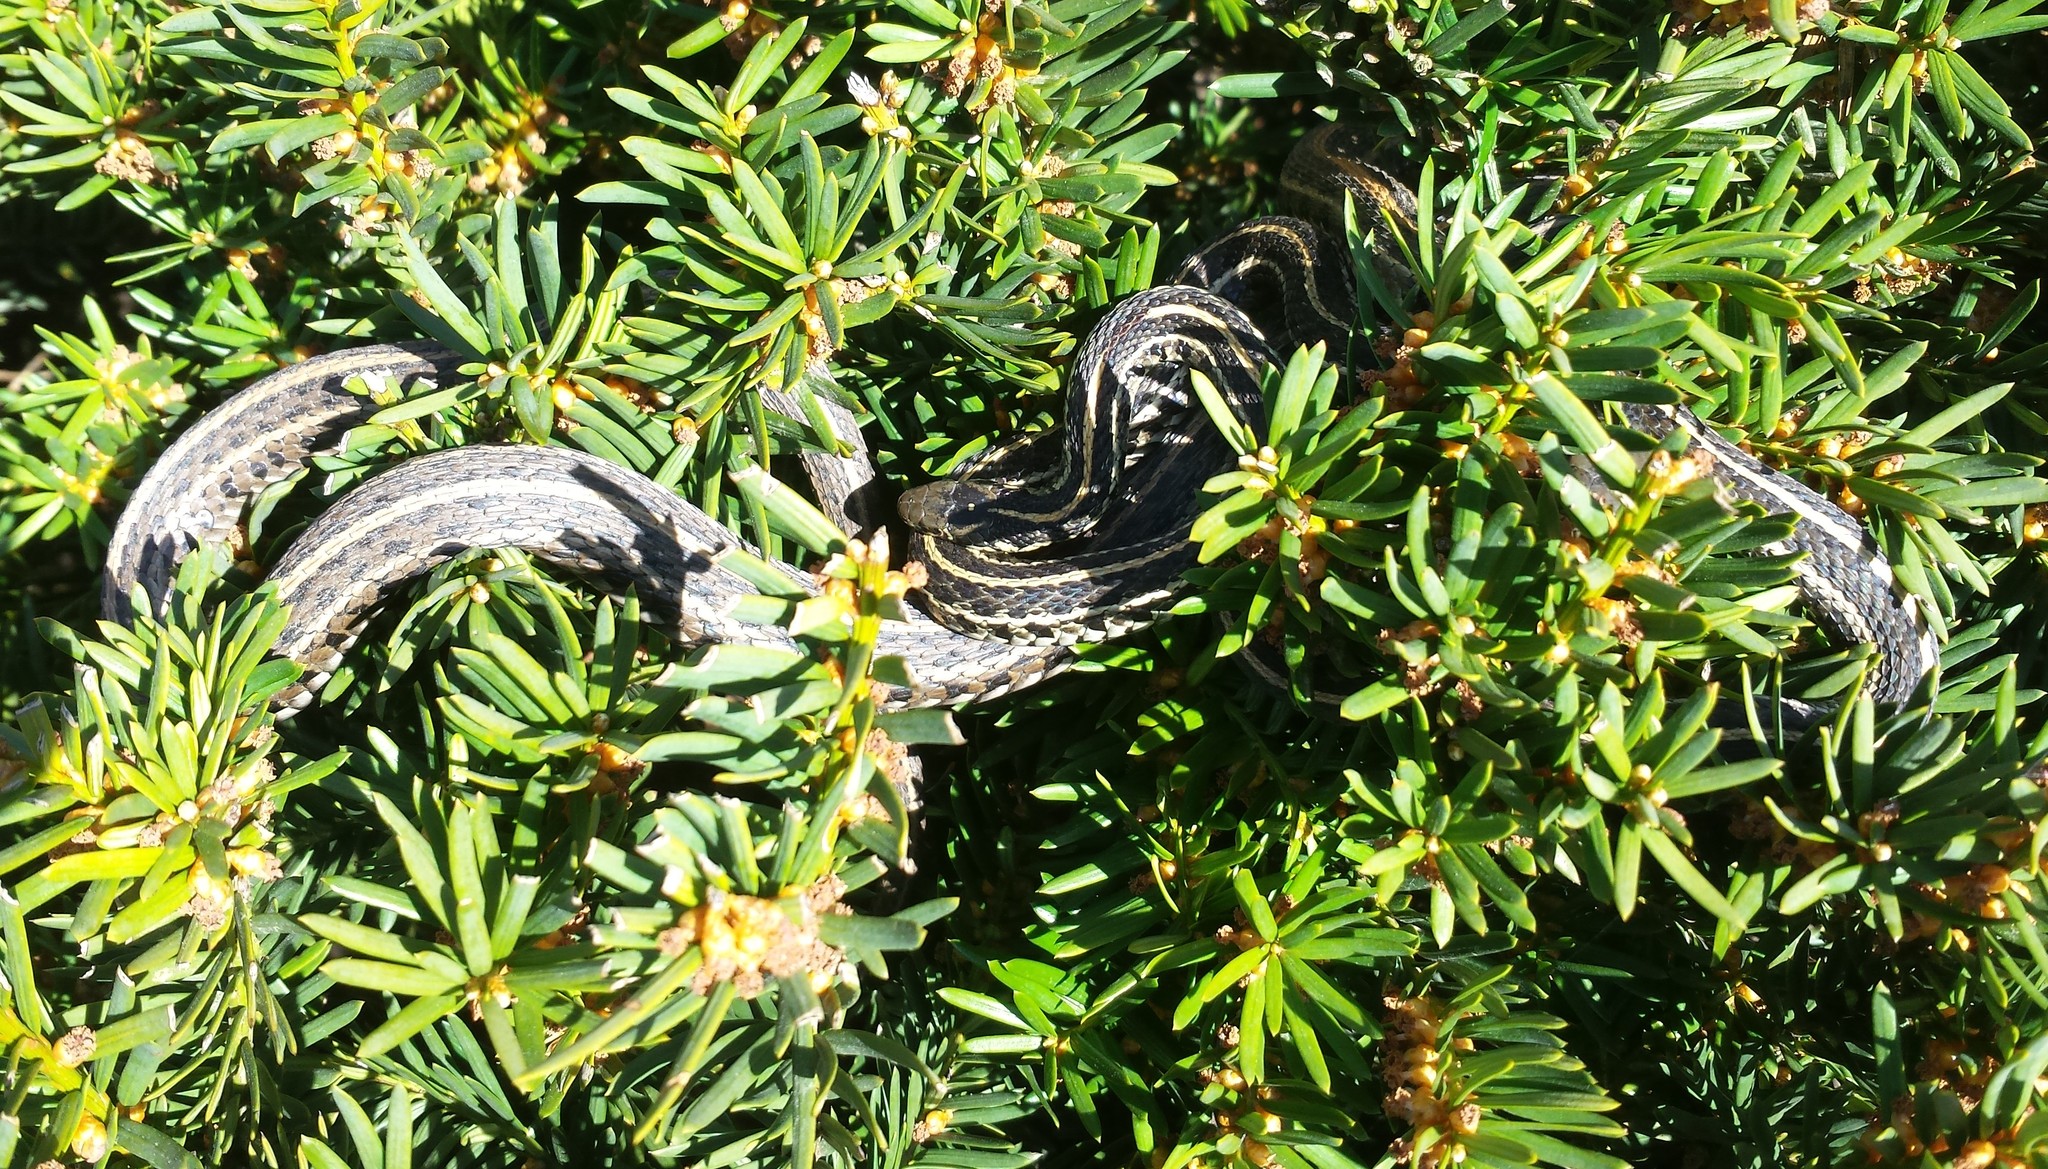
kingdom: Animalia
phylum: Chordata
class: Squamata
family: Colubridae
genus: Thamnophis
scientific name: Thamnophis radix
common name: Plains garter snake
